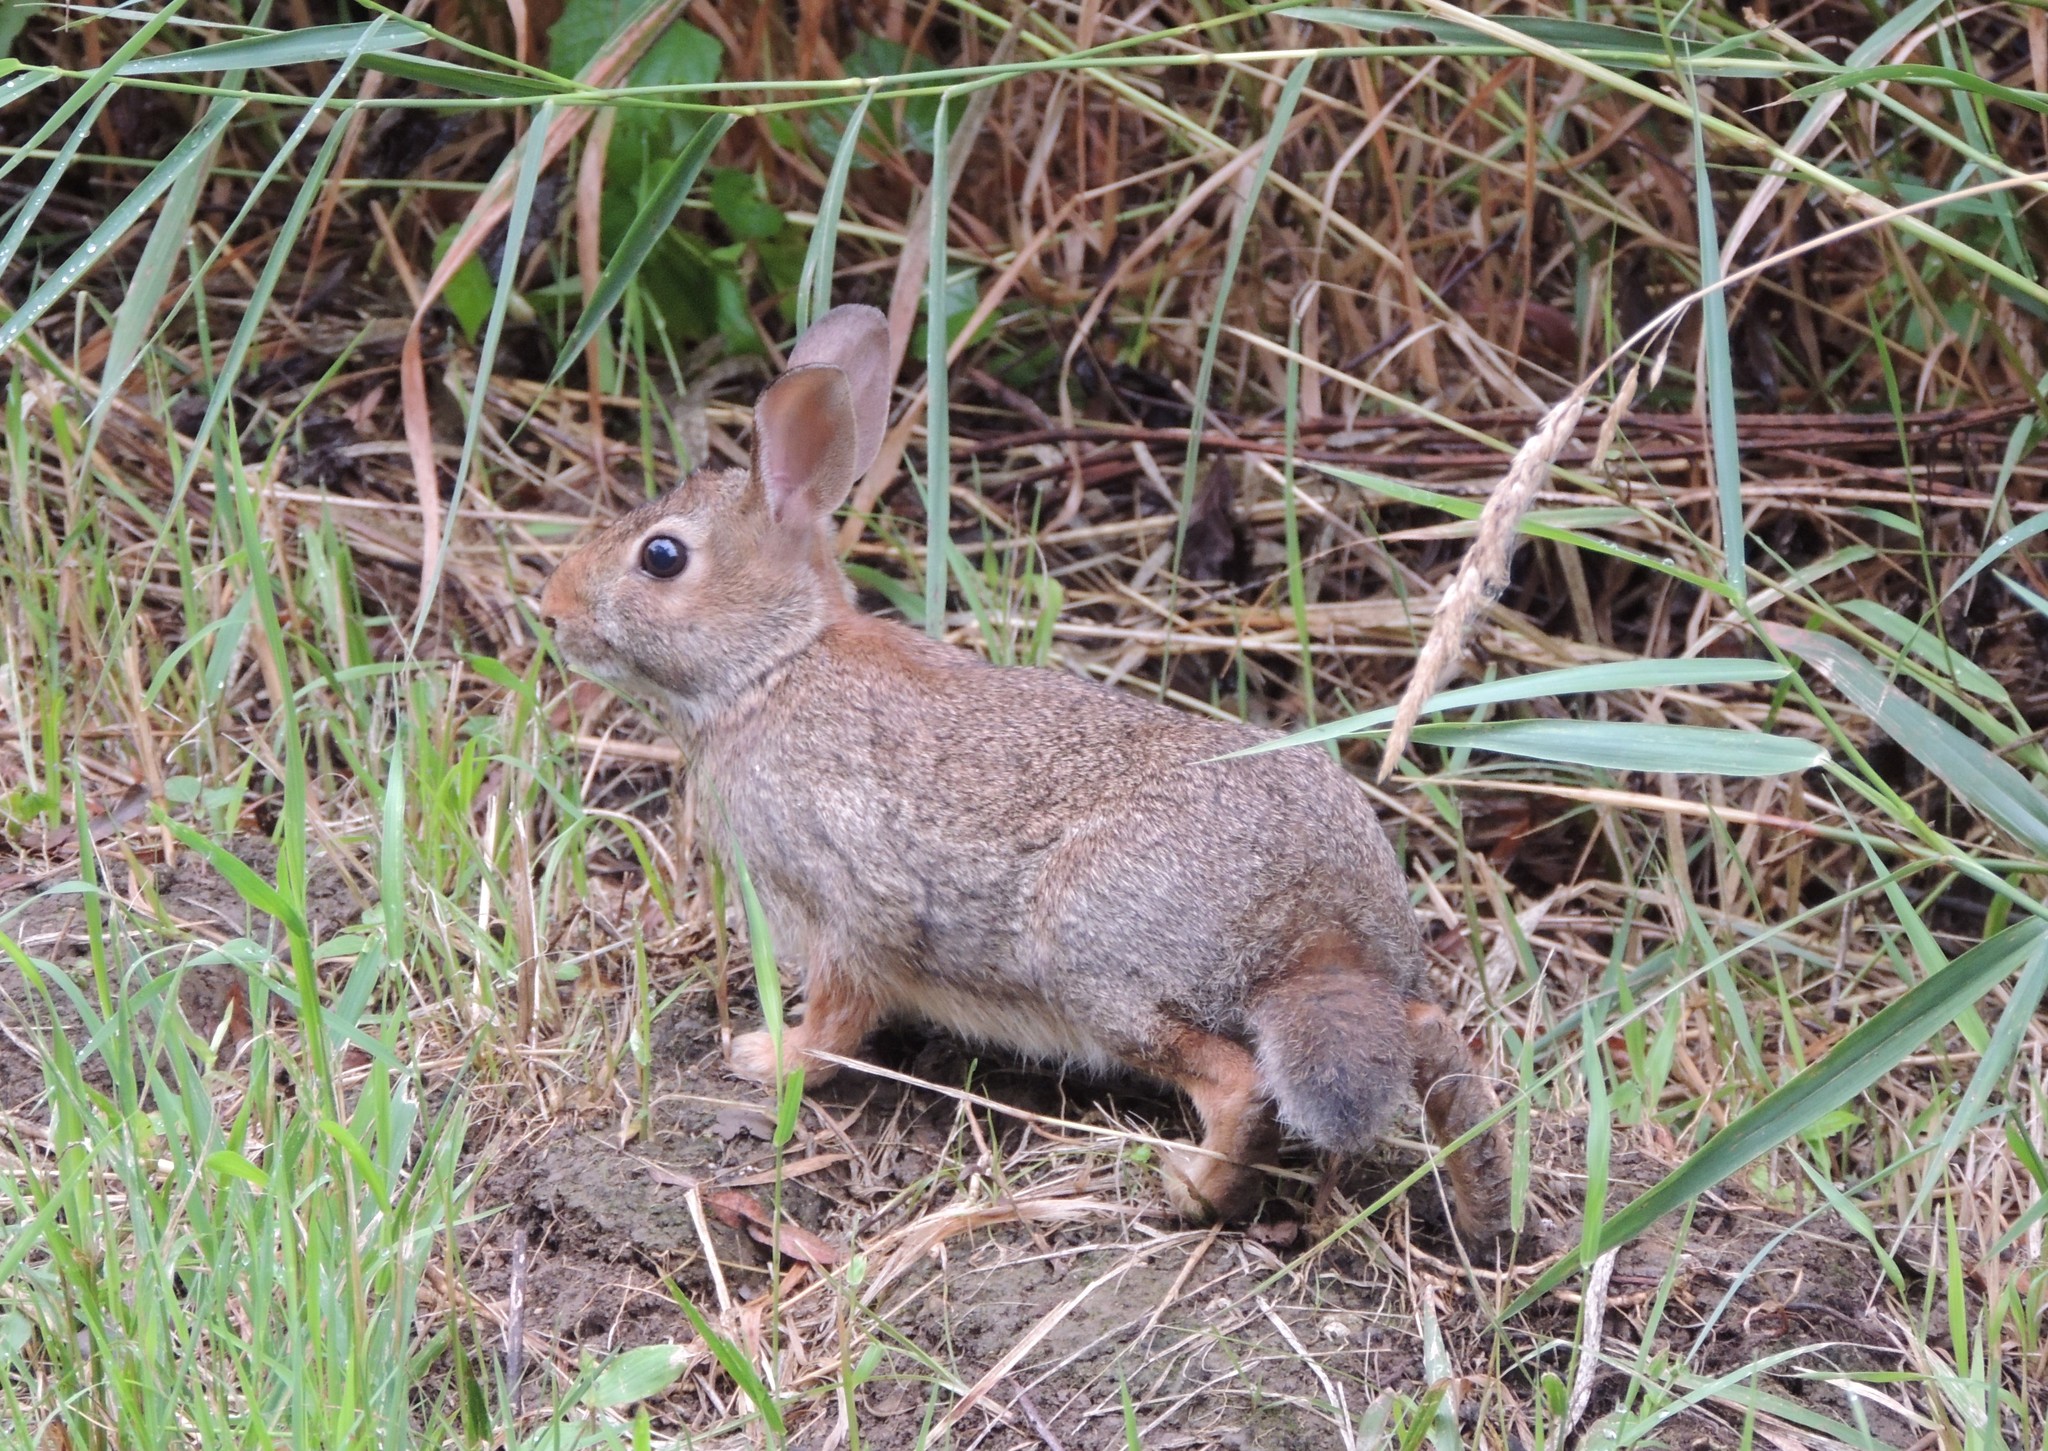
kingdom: Animalia
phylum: Chordata
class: Mammalia
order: Lagomorpha
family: Leporidae
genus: Sylvilagus
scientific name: Sylvilagus floridanus
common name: Eastern cottontail
